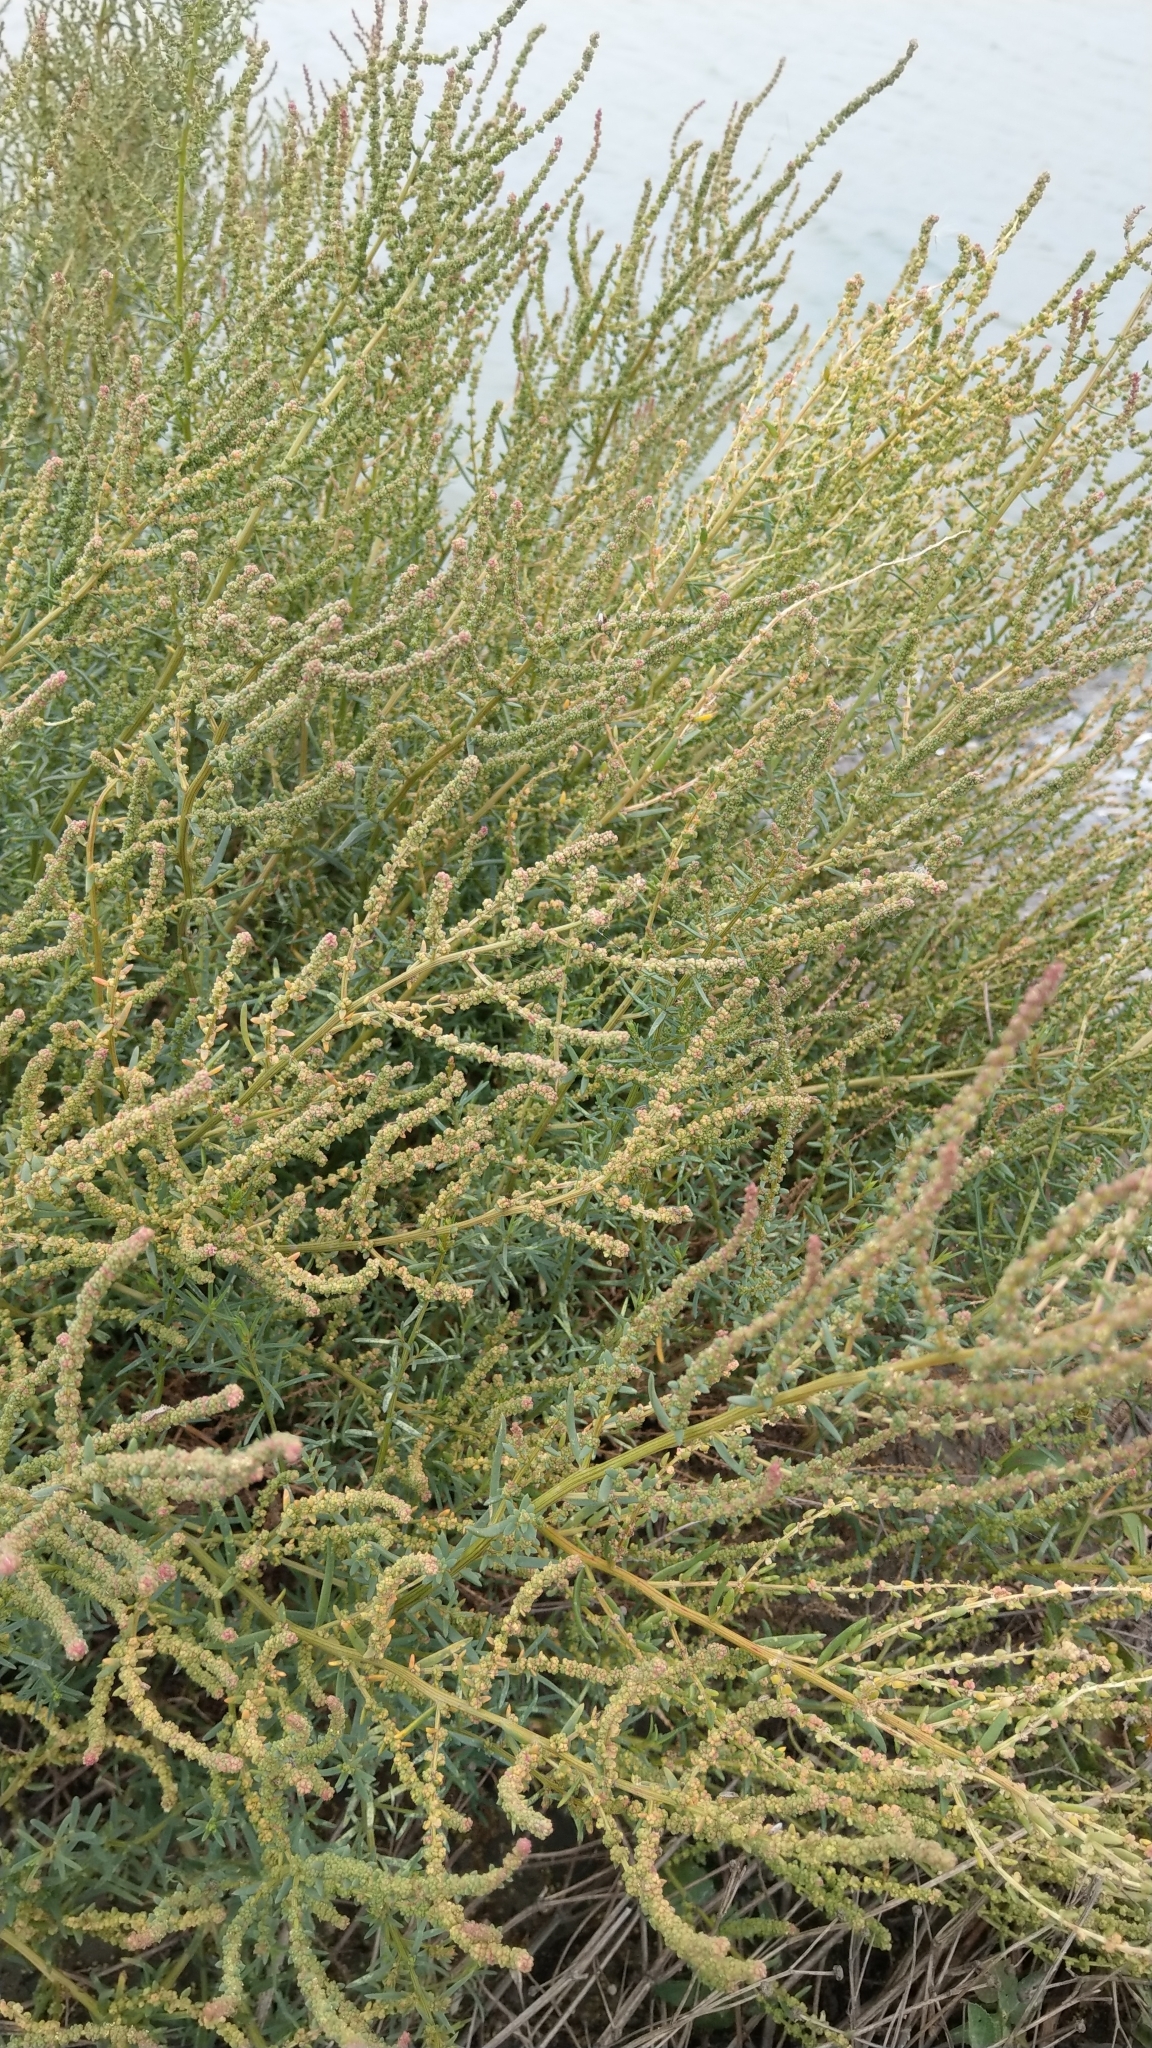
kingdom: Plantae
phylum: Tracheophyta
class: Magnoliopsida
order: Caryophyllales
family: Amaranthaceae
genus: Suaeda
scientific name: Suaeda maritima
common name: Annual sea-blite
